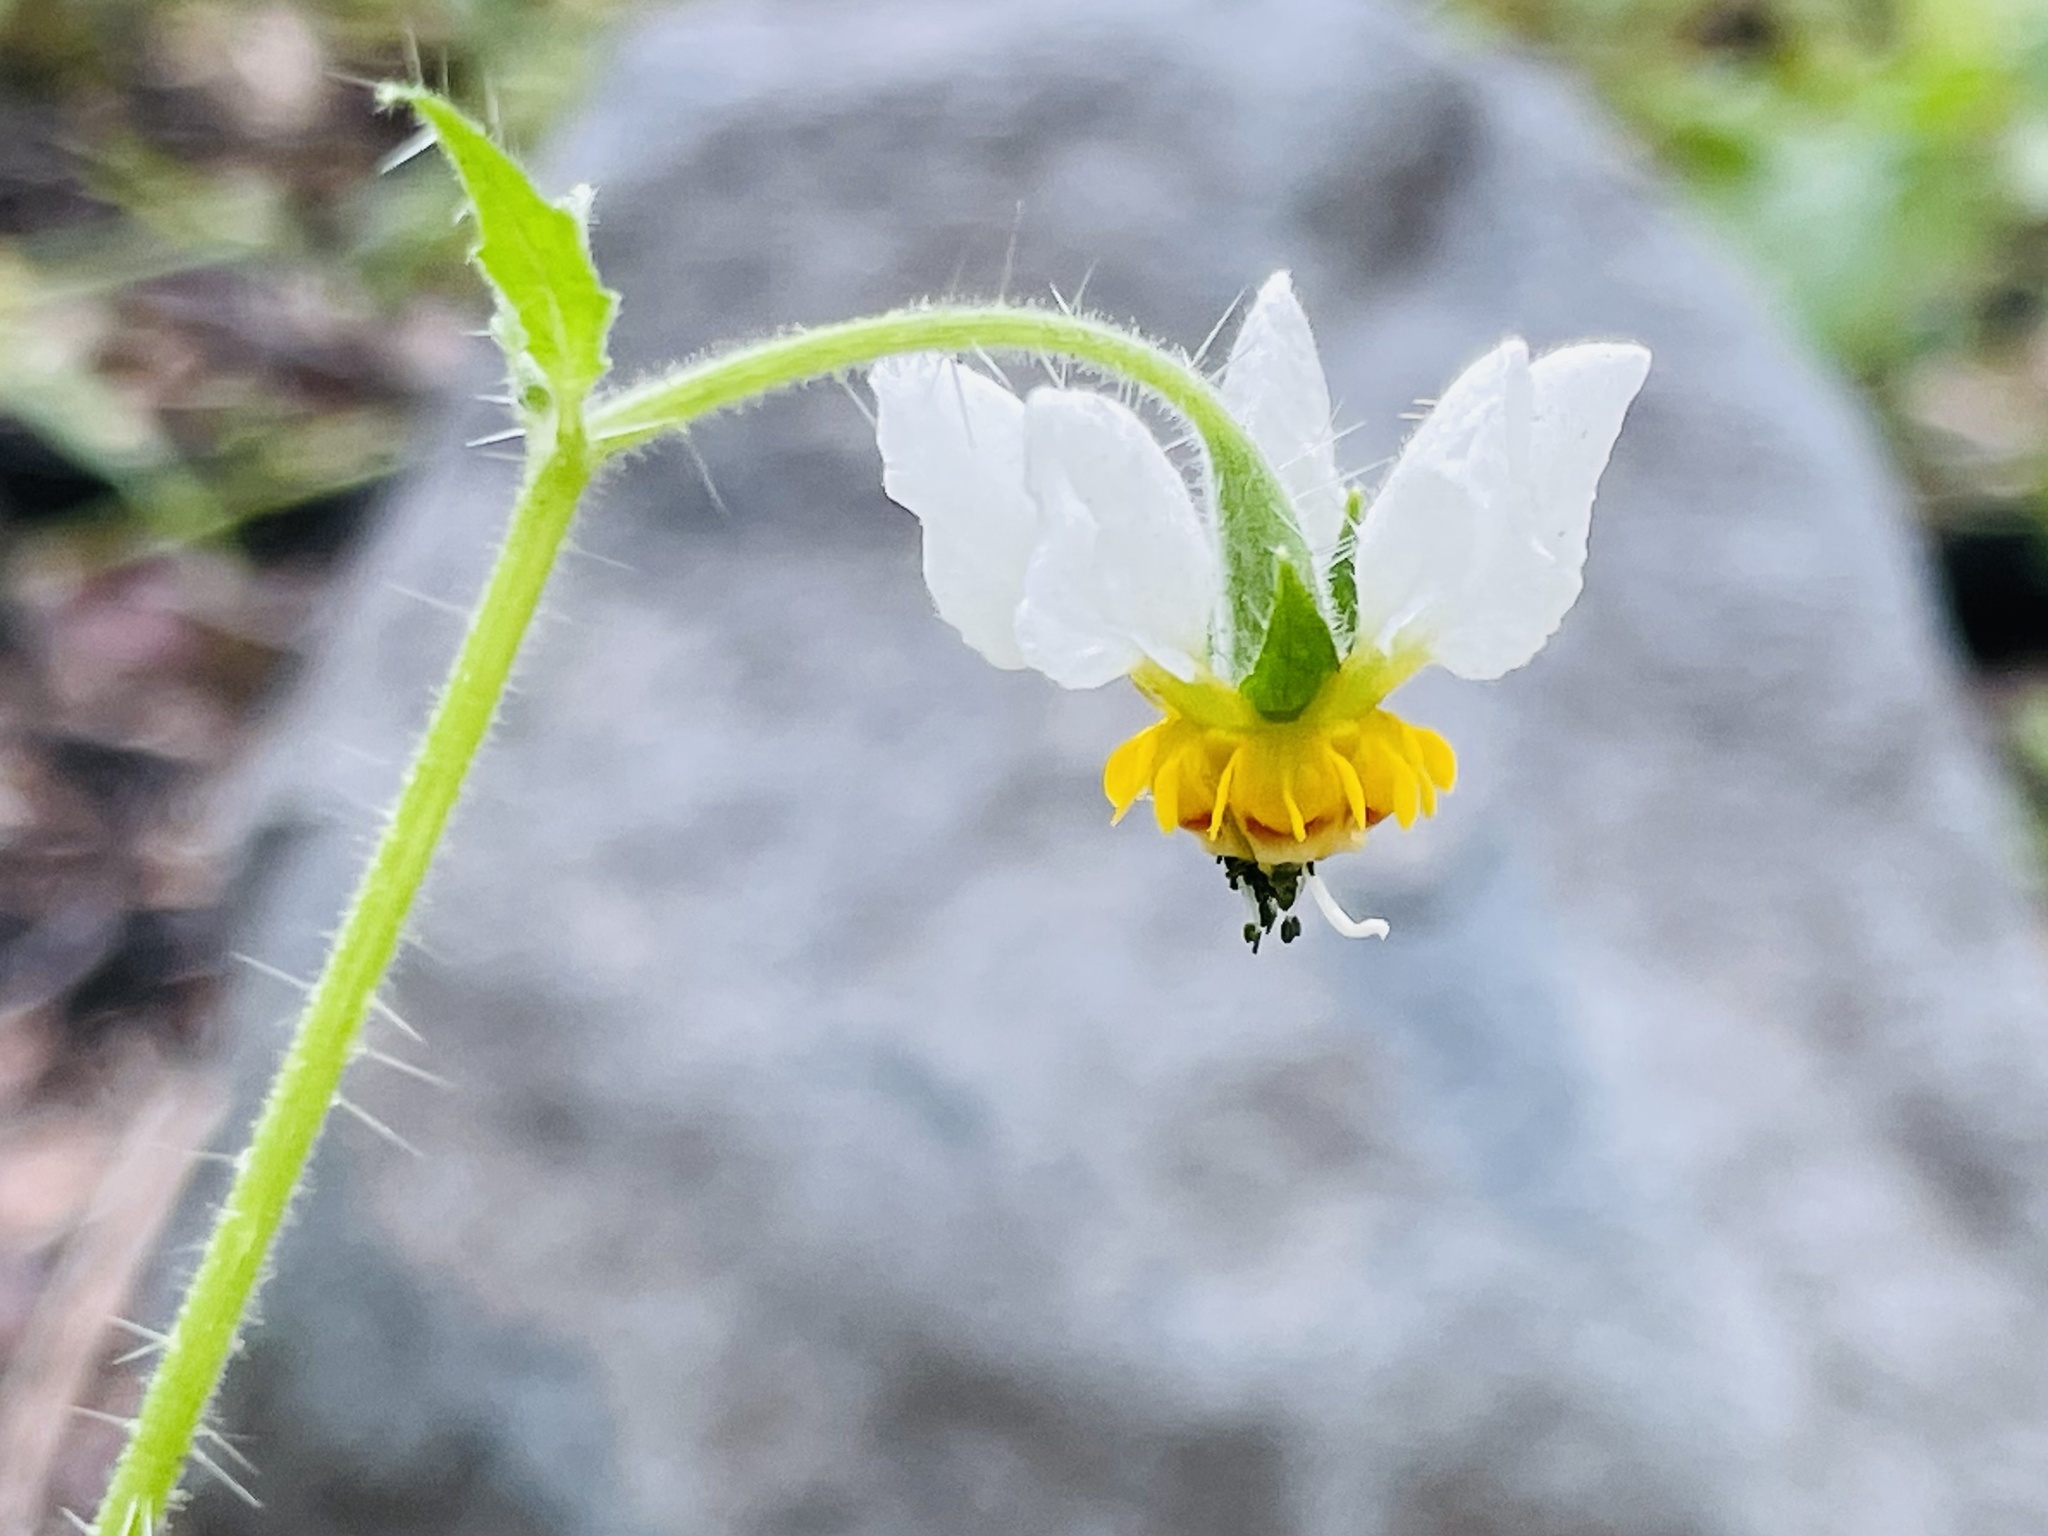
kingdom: Plantae
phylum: Tracheophyta
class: Magnoliopsida
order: Cornales
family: Loasaceae
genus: Loasa
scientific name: Loasa triloba
